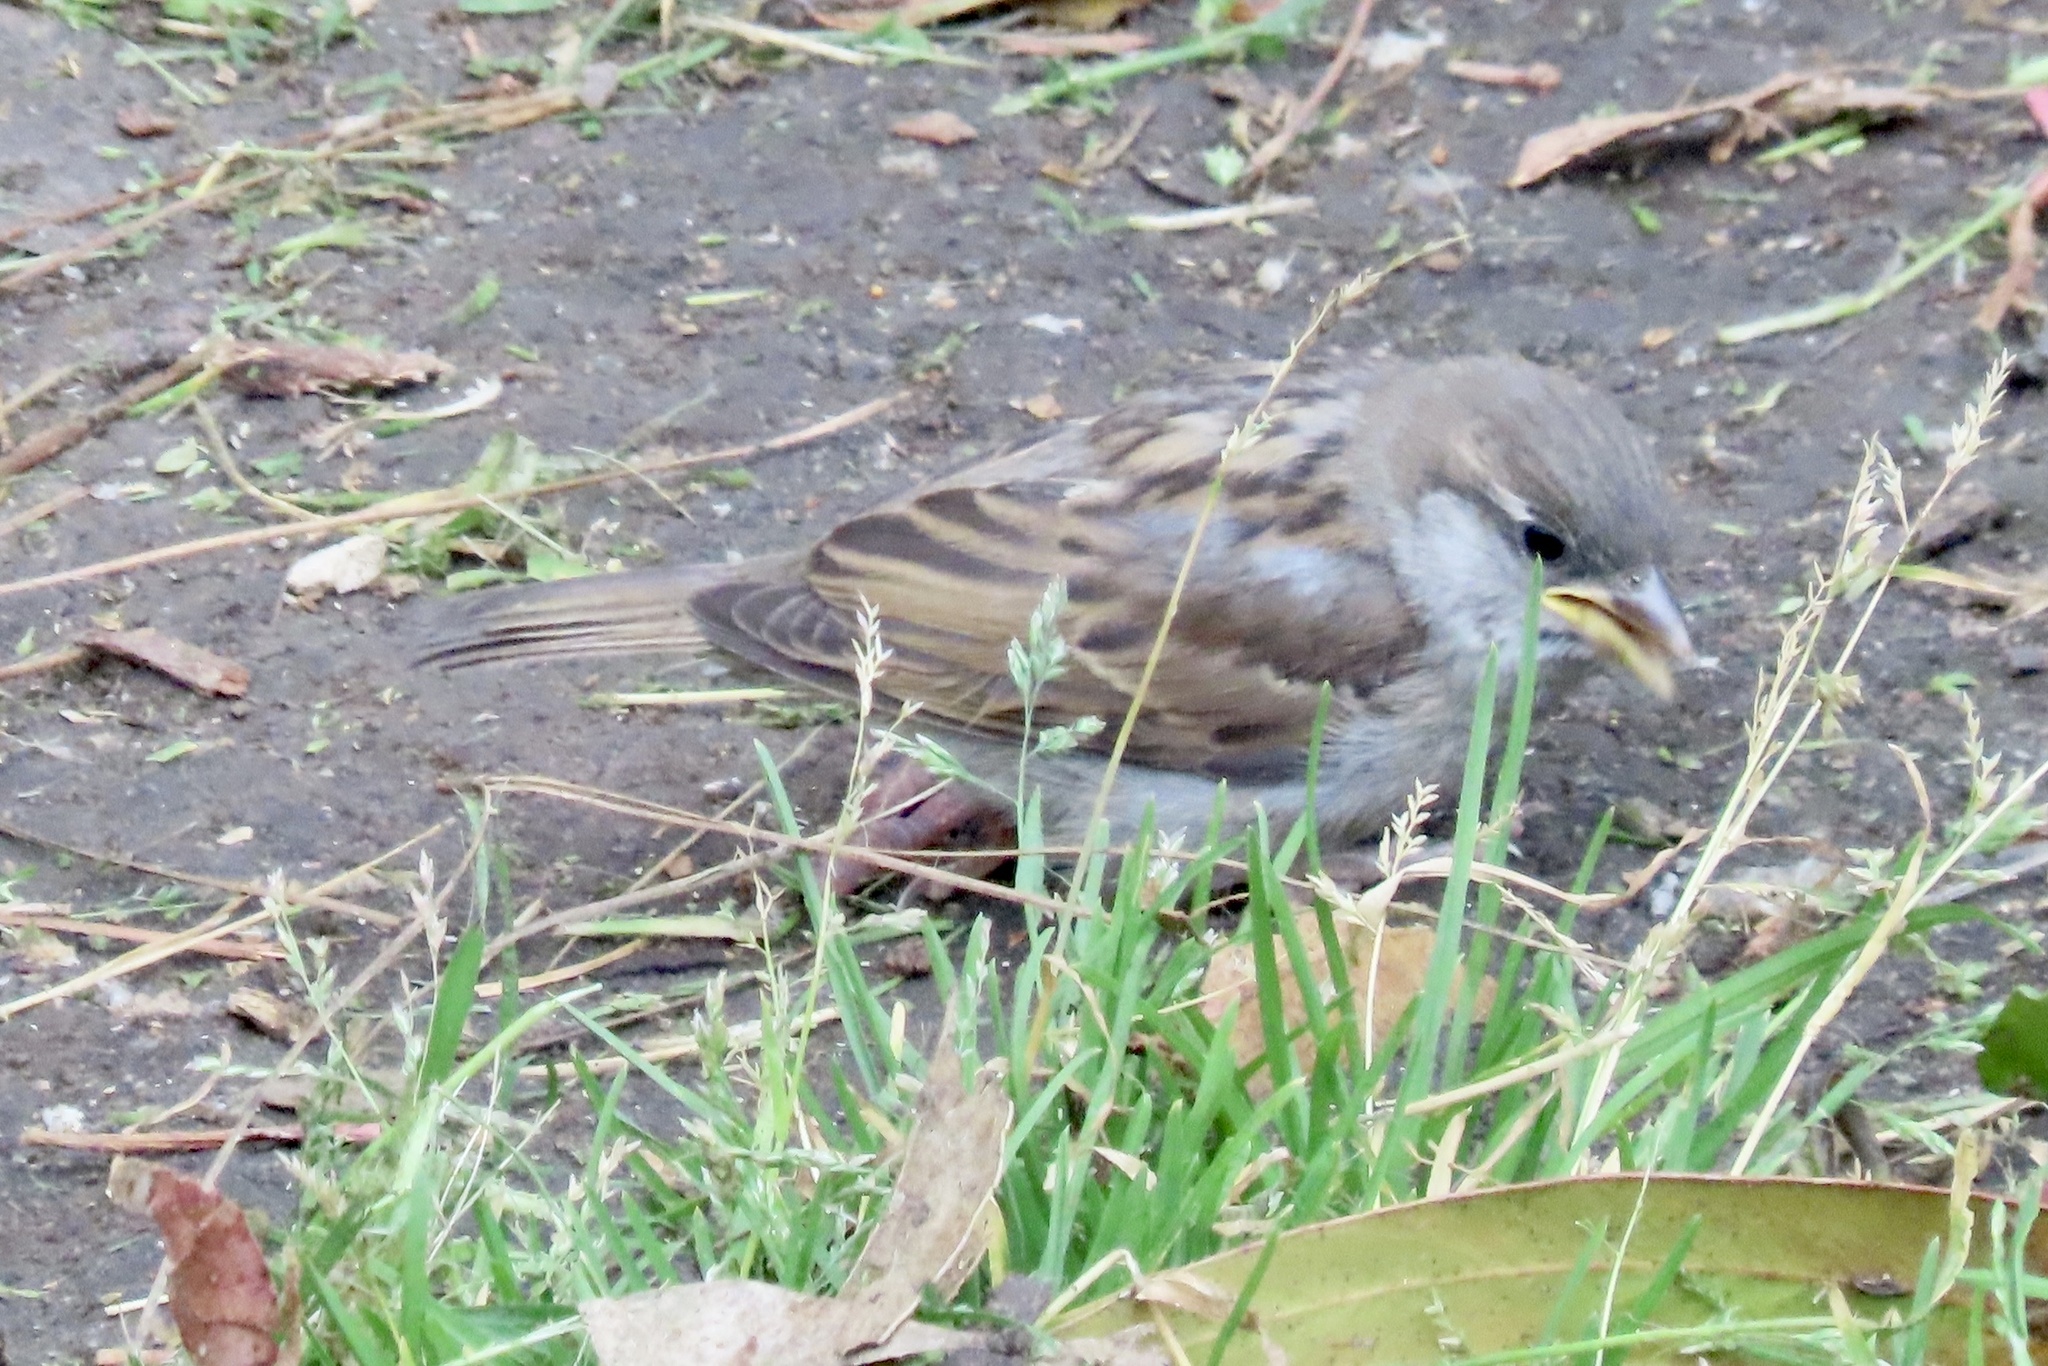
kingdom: Animalia
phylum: Chordata
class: Aves
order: Passeriformes
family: Passeridae
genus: Passer
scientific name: Passer domesticus
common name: House sparrow
